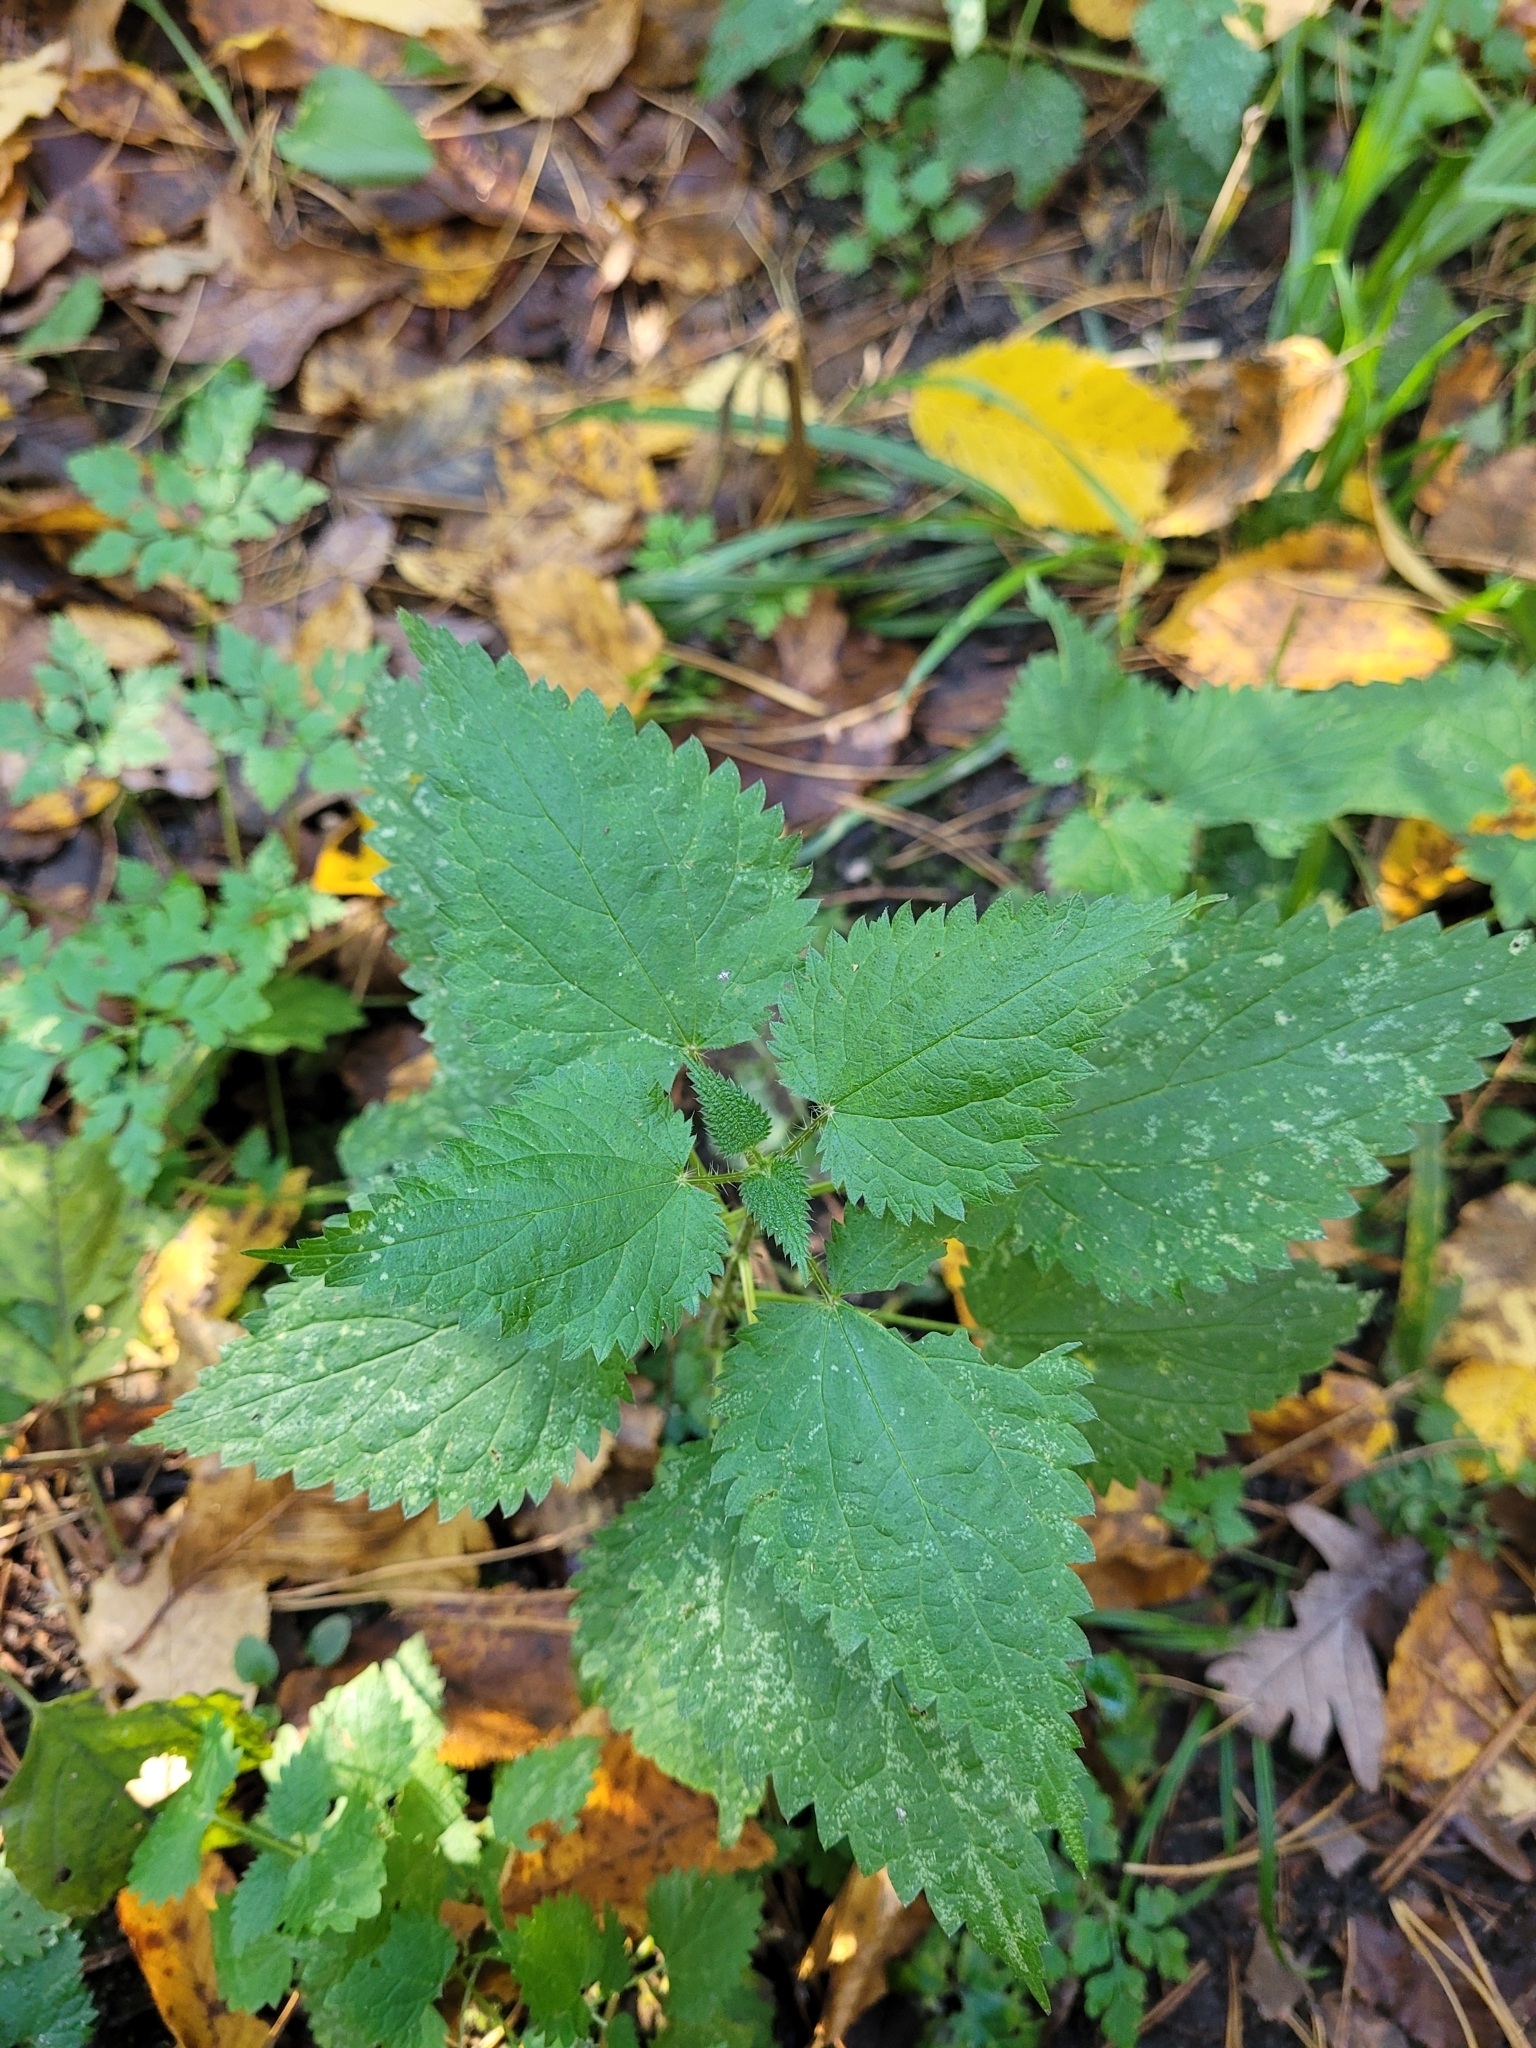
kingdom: Plantae
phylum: Tracheophyta
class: Magnoliopsida
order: Rosales
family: Urticaceae
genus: Urtica
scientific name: Urtica dioica
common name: Common nettle
